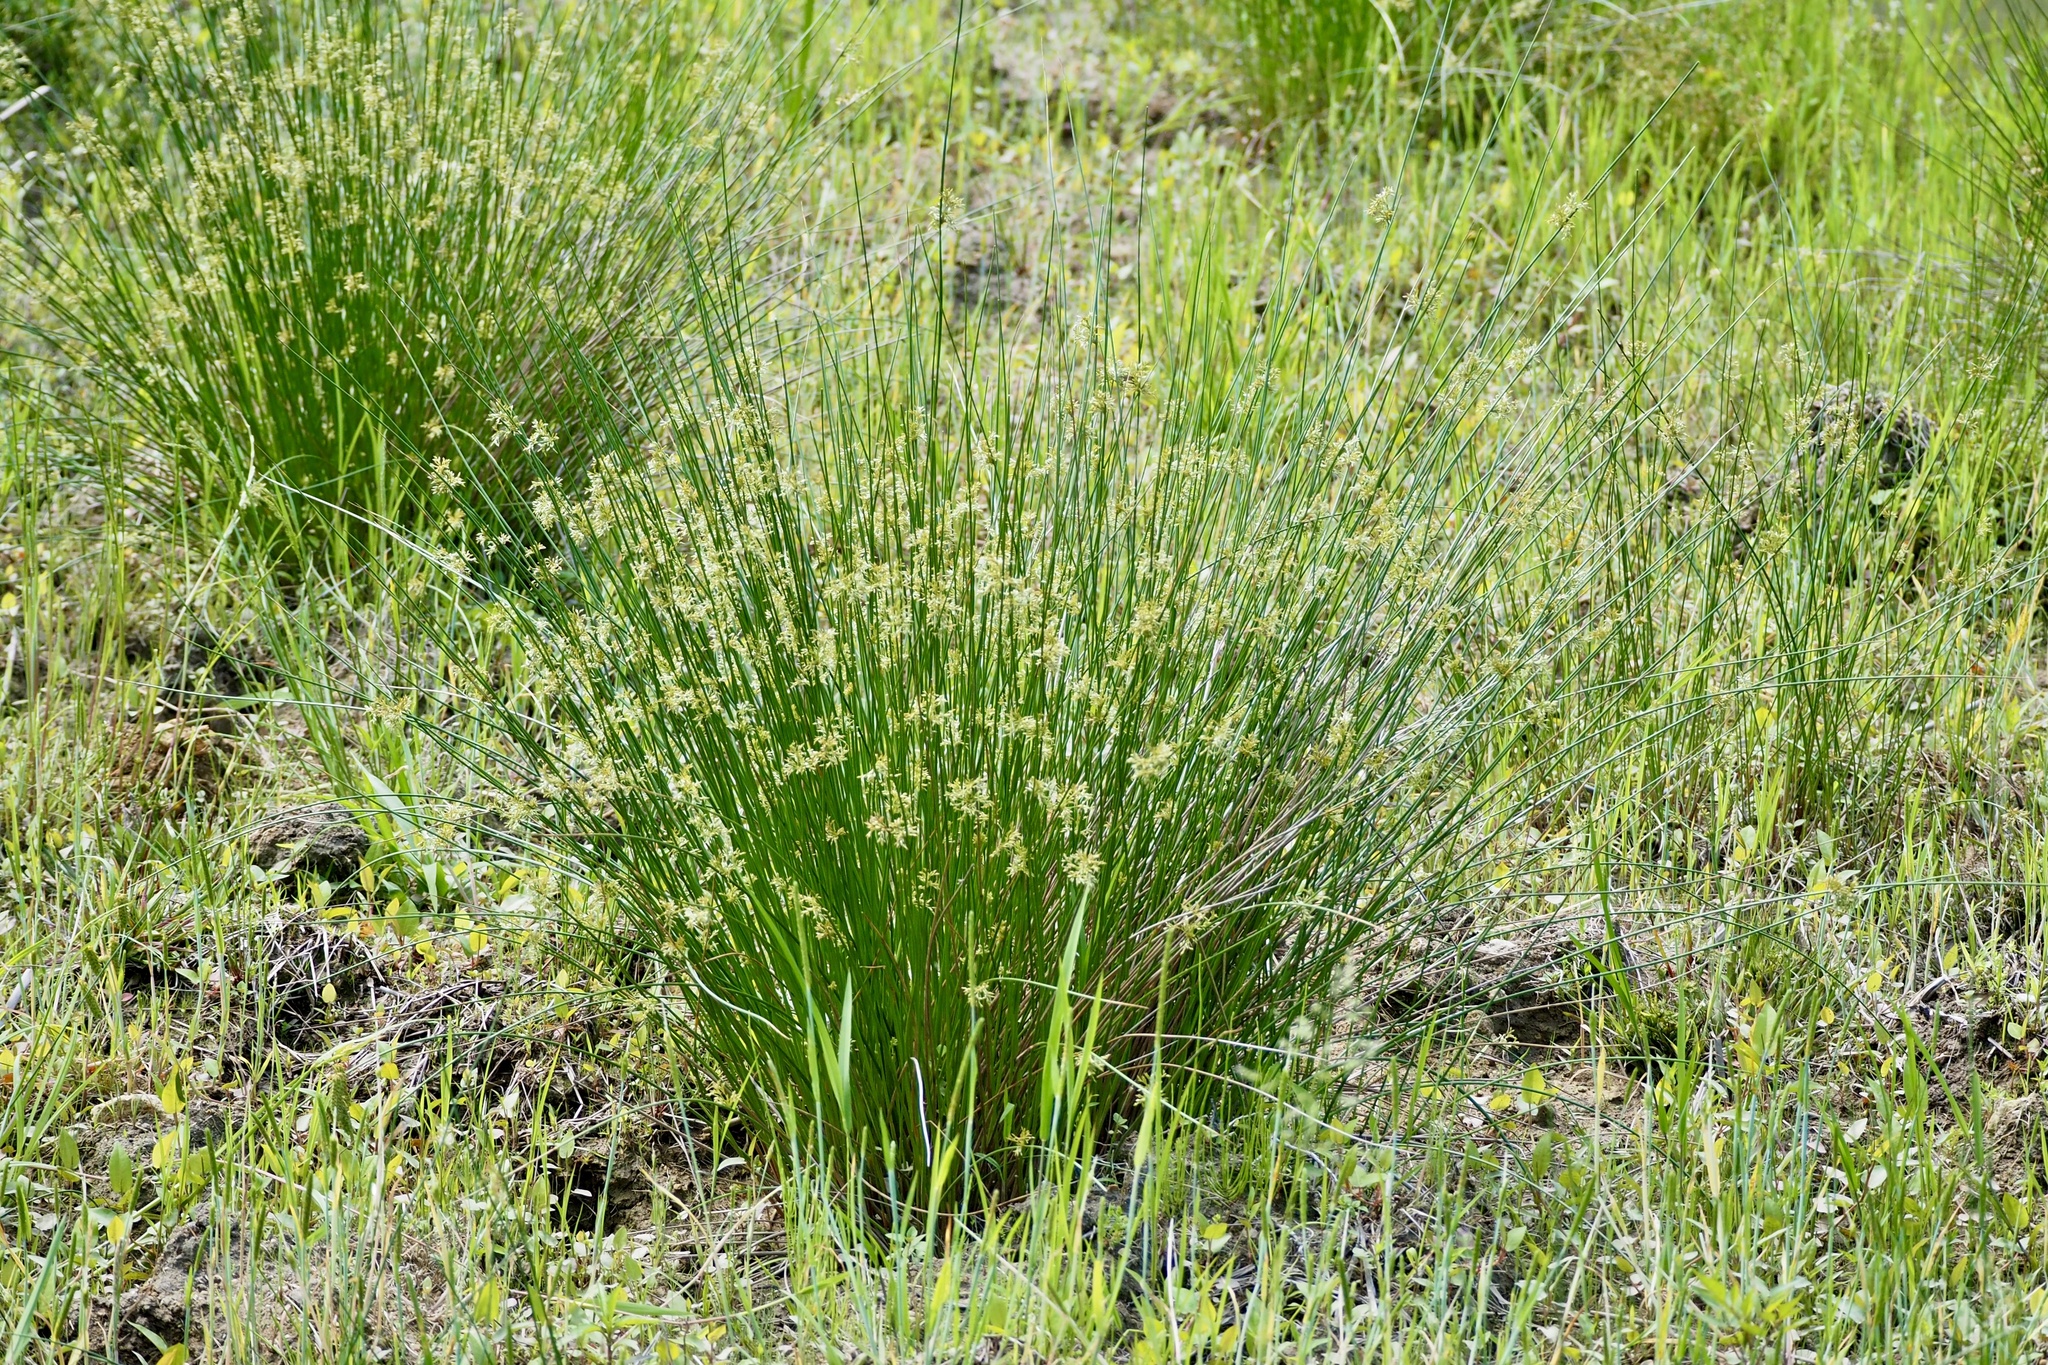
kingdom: Plantae
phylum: Tracheophyta
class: Liliopsida
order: Poales
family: Juncaceae
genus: Juncus
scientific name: Juncus decipiens
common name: Lamp rush
